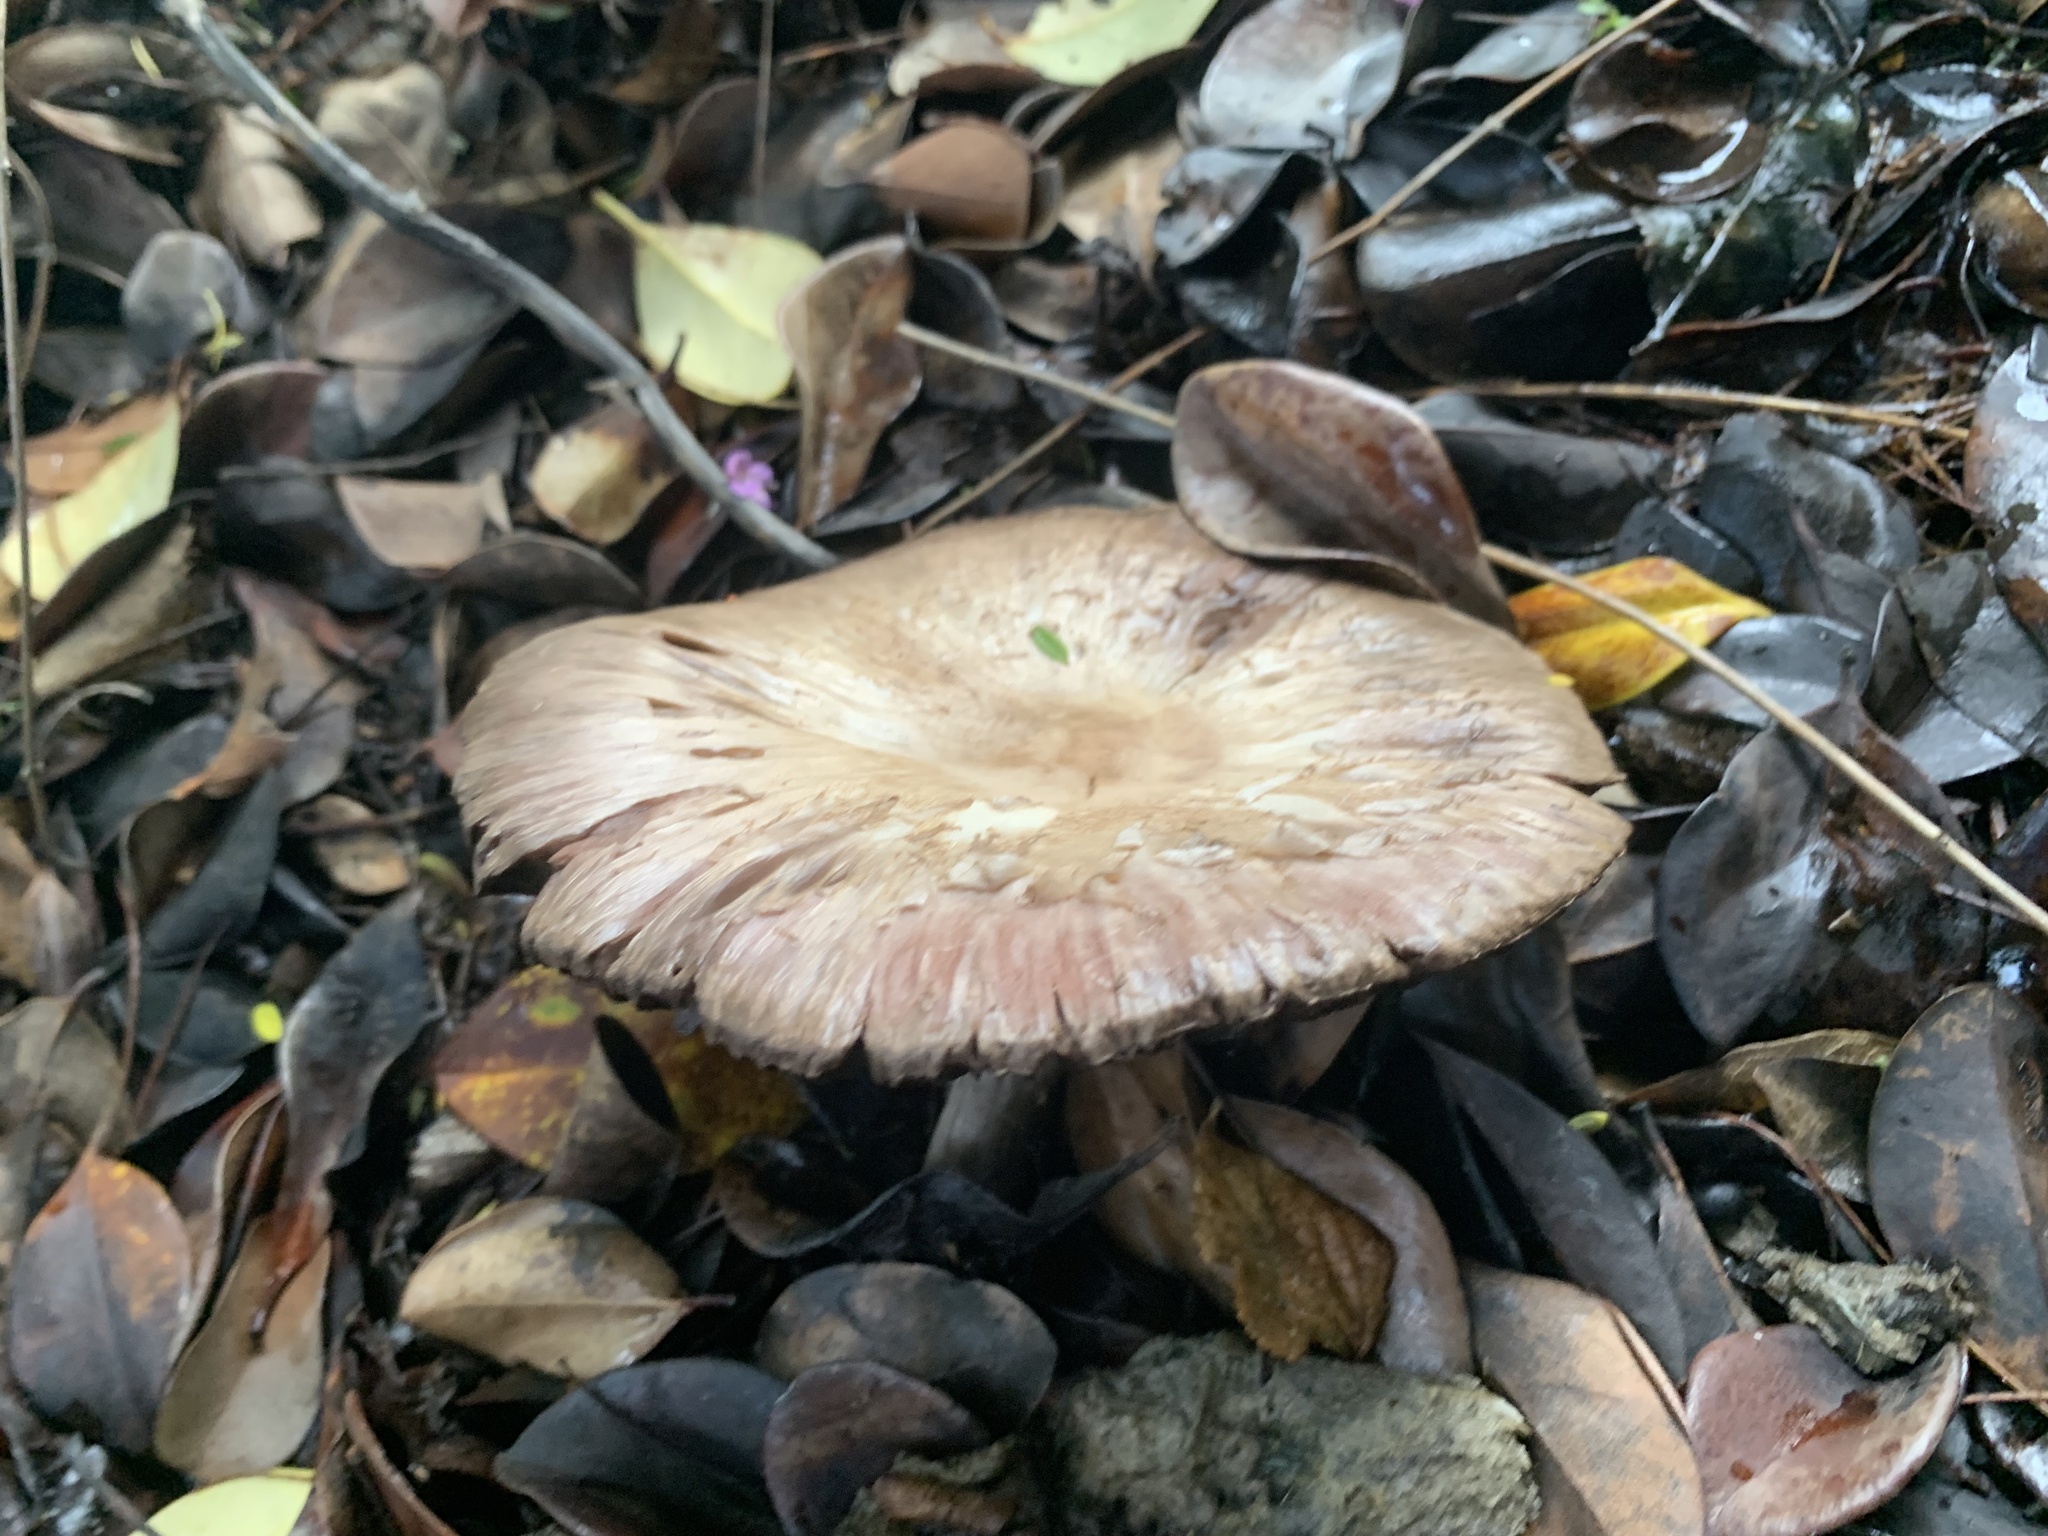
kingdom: Fungi
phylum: Basidiomycota
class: Agaricomycetes
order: Agaricales
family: Agaricaceae
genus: Agaricus
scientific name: Agaricus californicus
